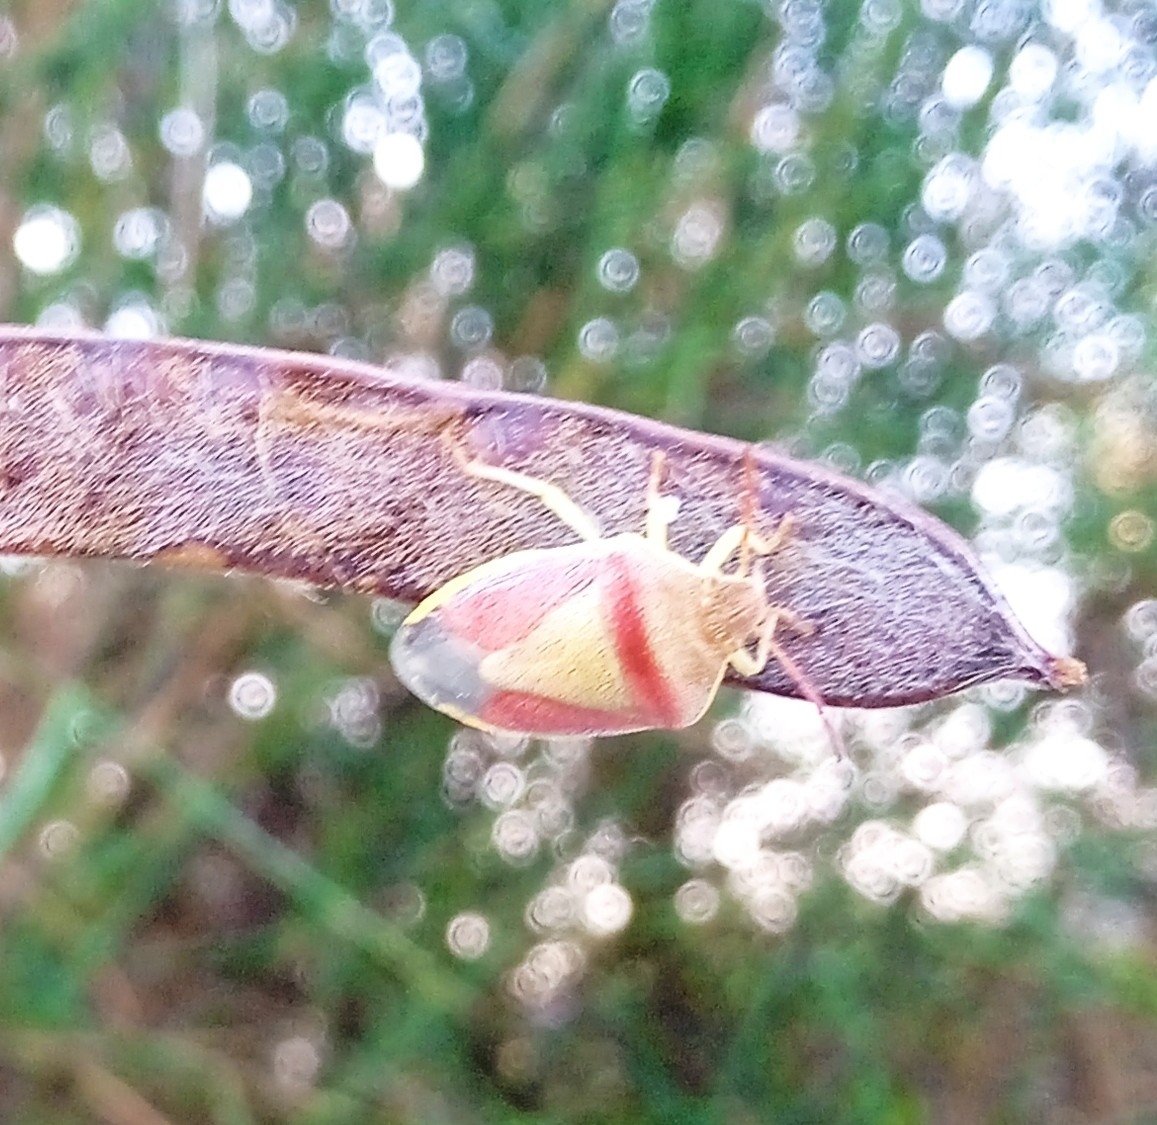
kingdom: Animalia
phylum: Arthropoda
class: Insecta
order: Hemiptera
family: Pentatomidae
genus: Piezodorus
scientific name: Piezodorus lituratus
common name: Stink bug
